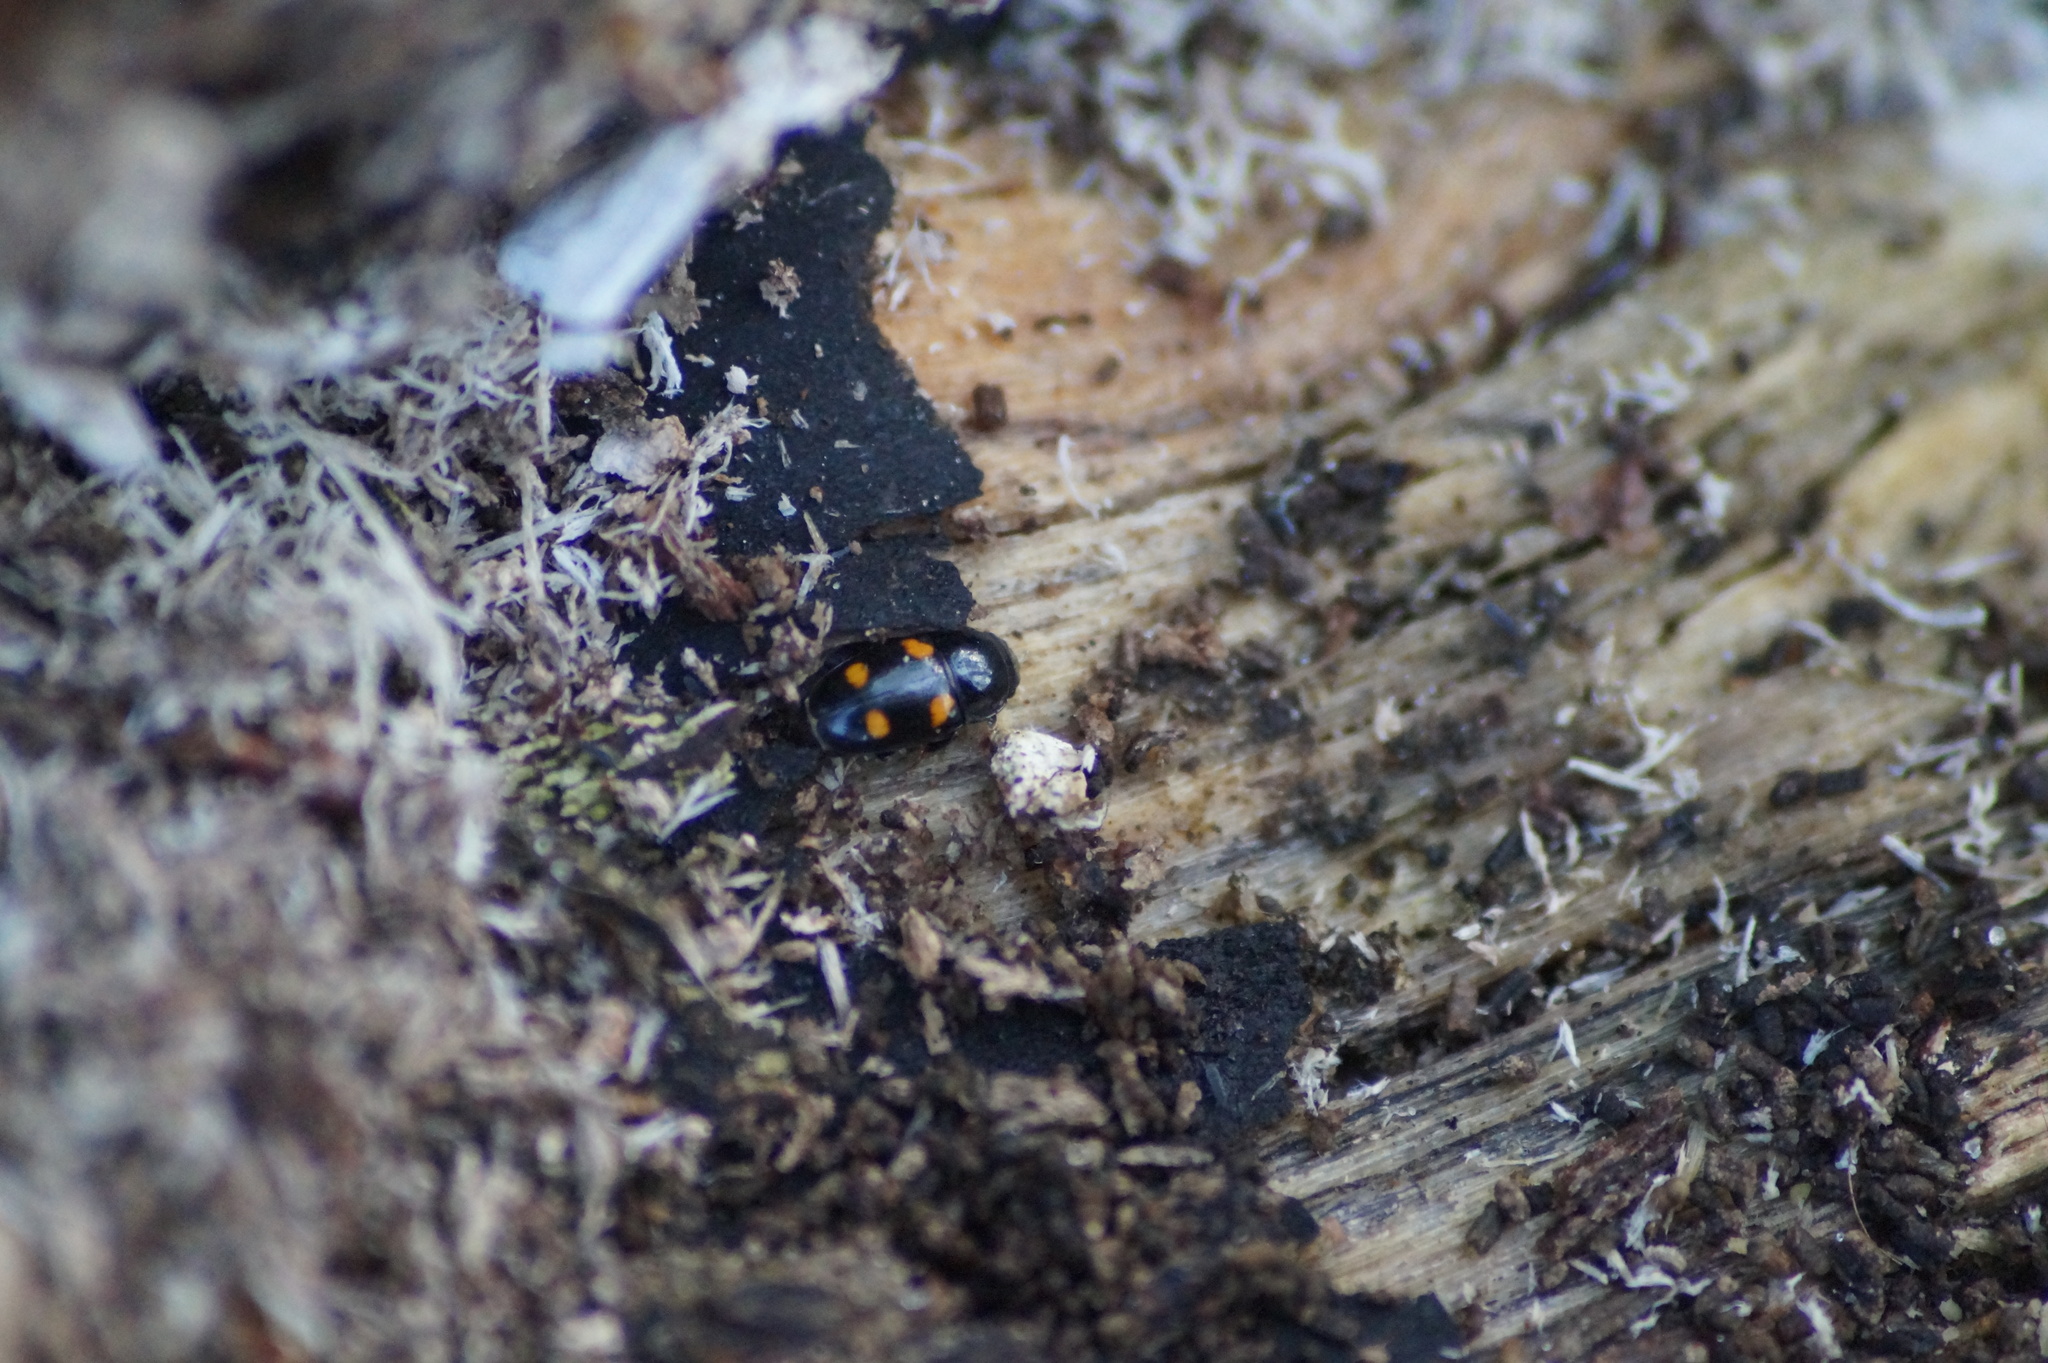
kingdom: Animalia
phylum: Arthropoda
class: Insecta
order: Coleoptera
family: Nitidulidae
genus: Glischrochilus
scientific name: Glischrochilus hortensis
